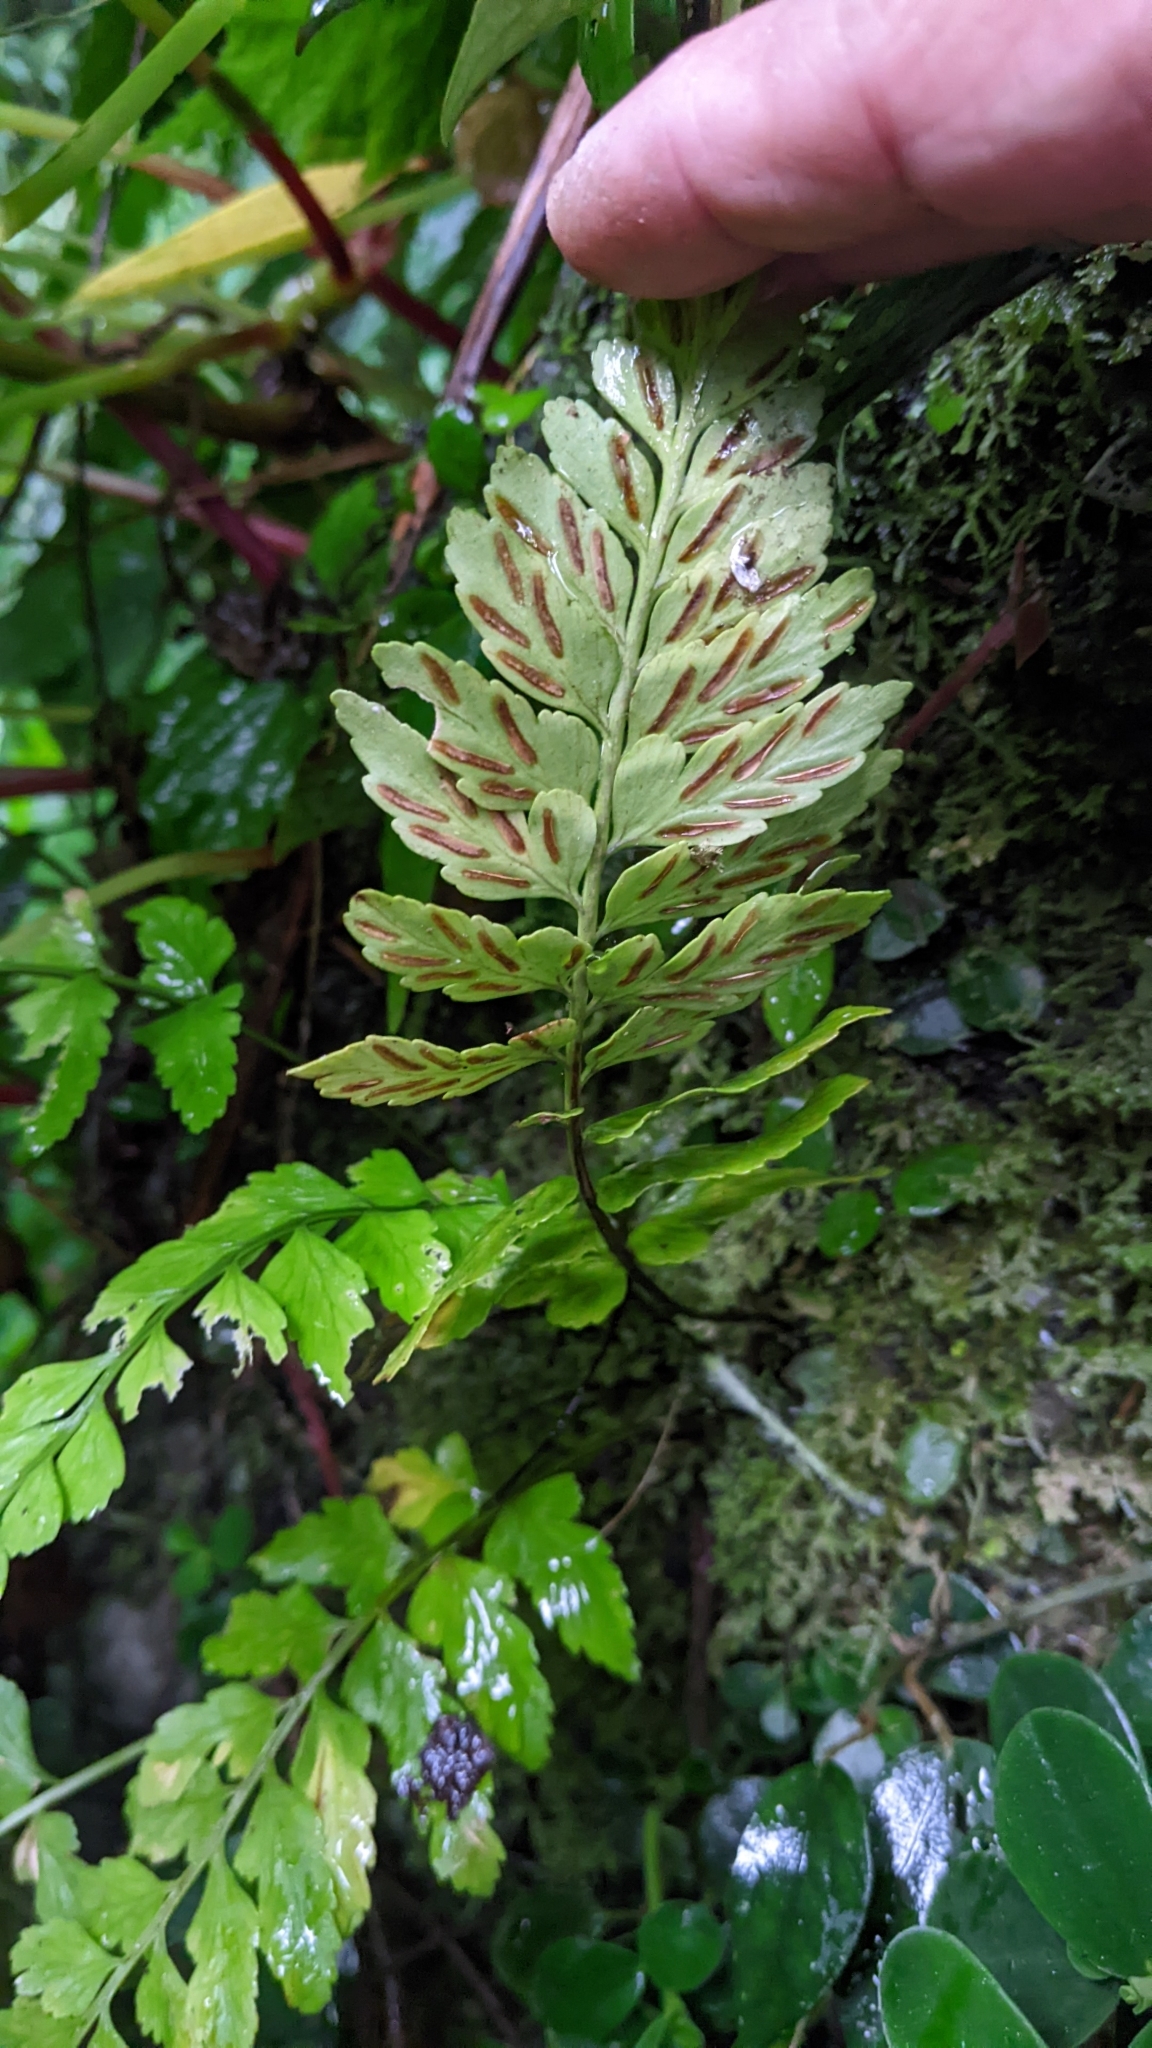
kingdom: Plantae
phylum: Tracheophyta
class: Polypodiopsida
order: Polypodiales
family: Aspleniaceae
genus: Asplenium
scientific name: Asplenium cuneatiforme
